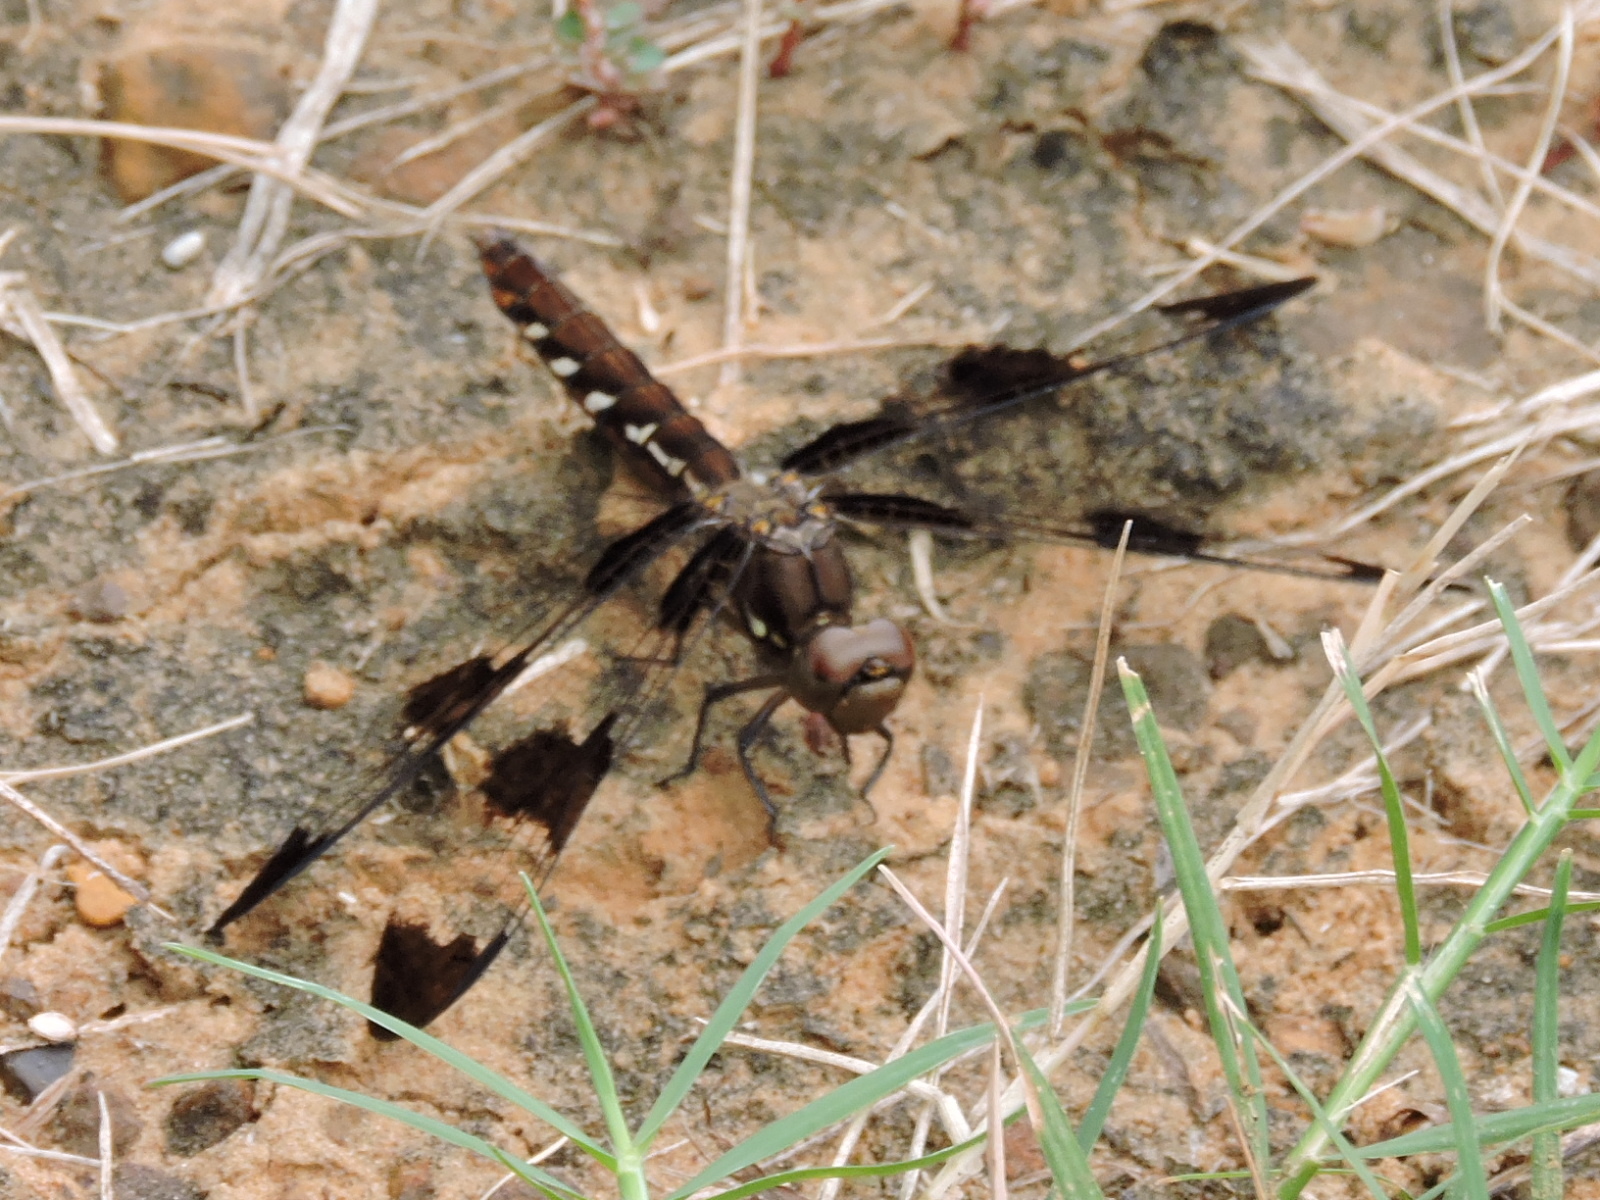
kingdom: Animalia
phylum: Arthropoda
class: Insecta
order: Odonata
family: Libellulidae
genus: Plathemis
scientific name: Plathemis lydia
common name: Common whitetail
